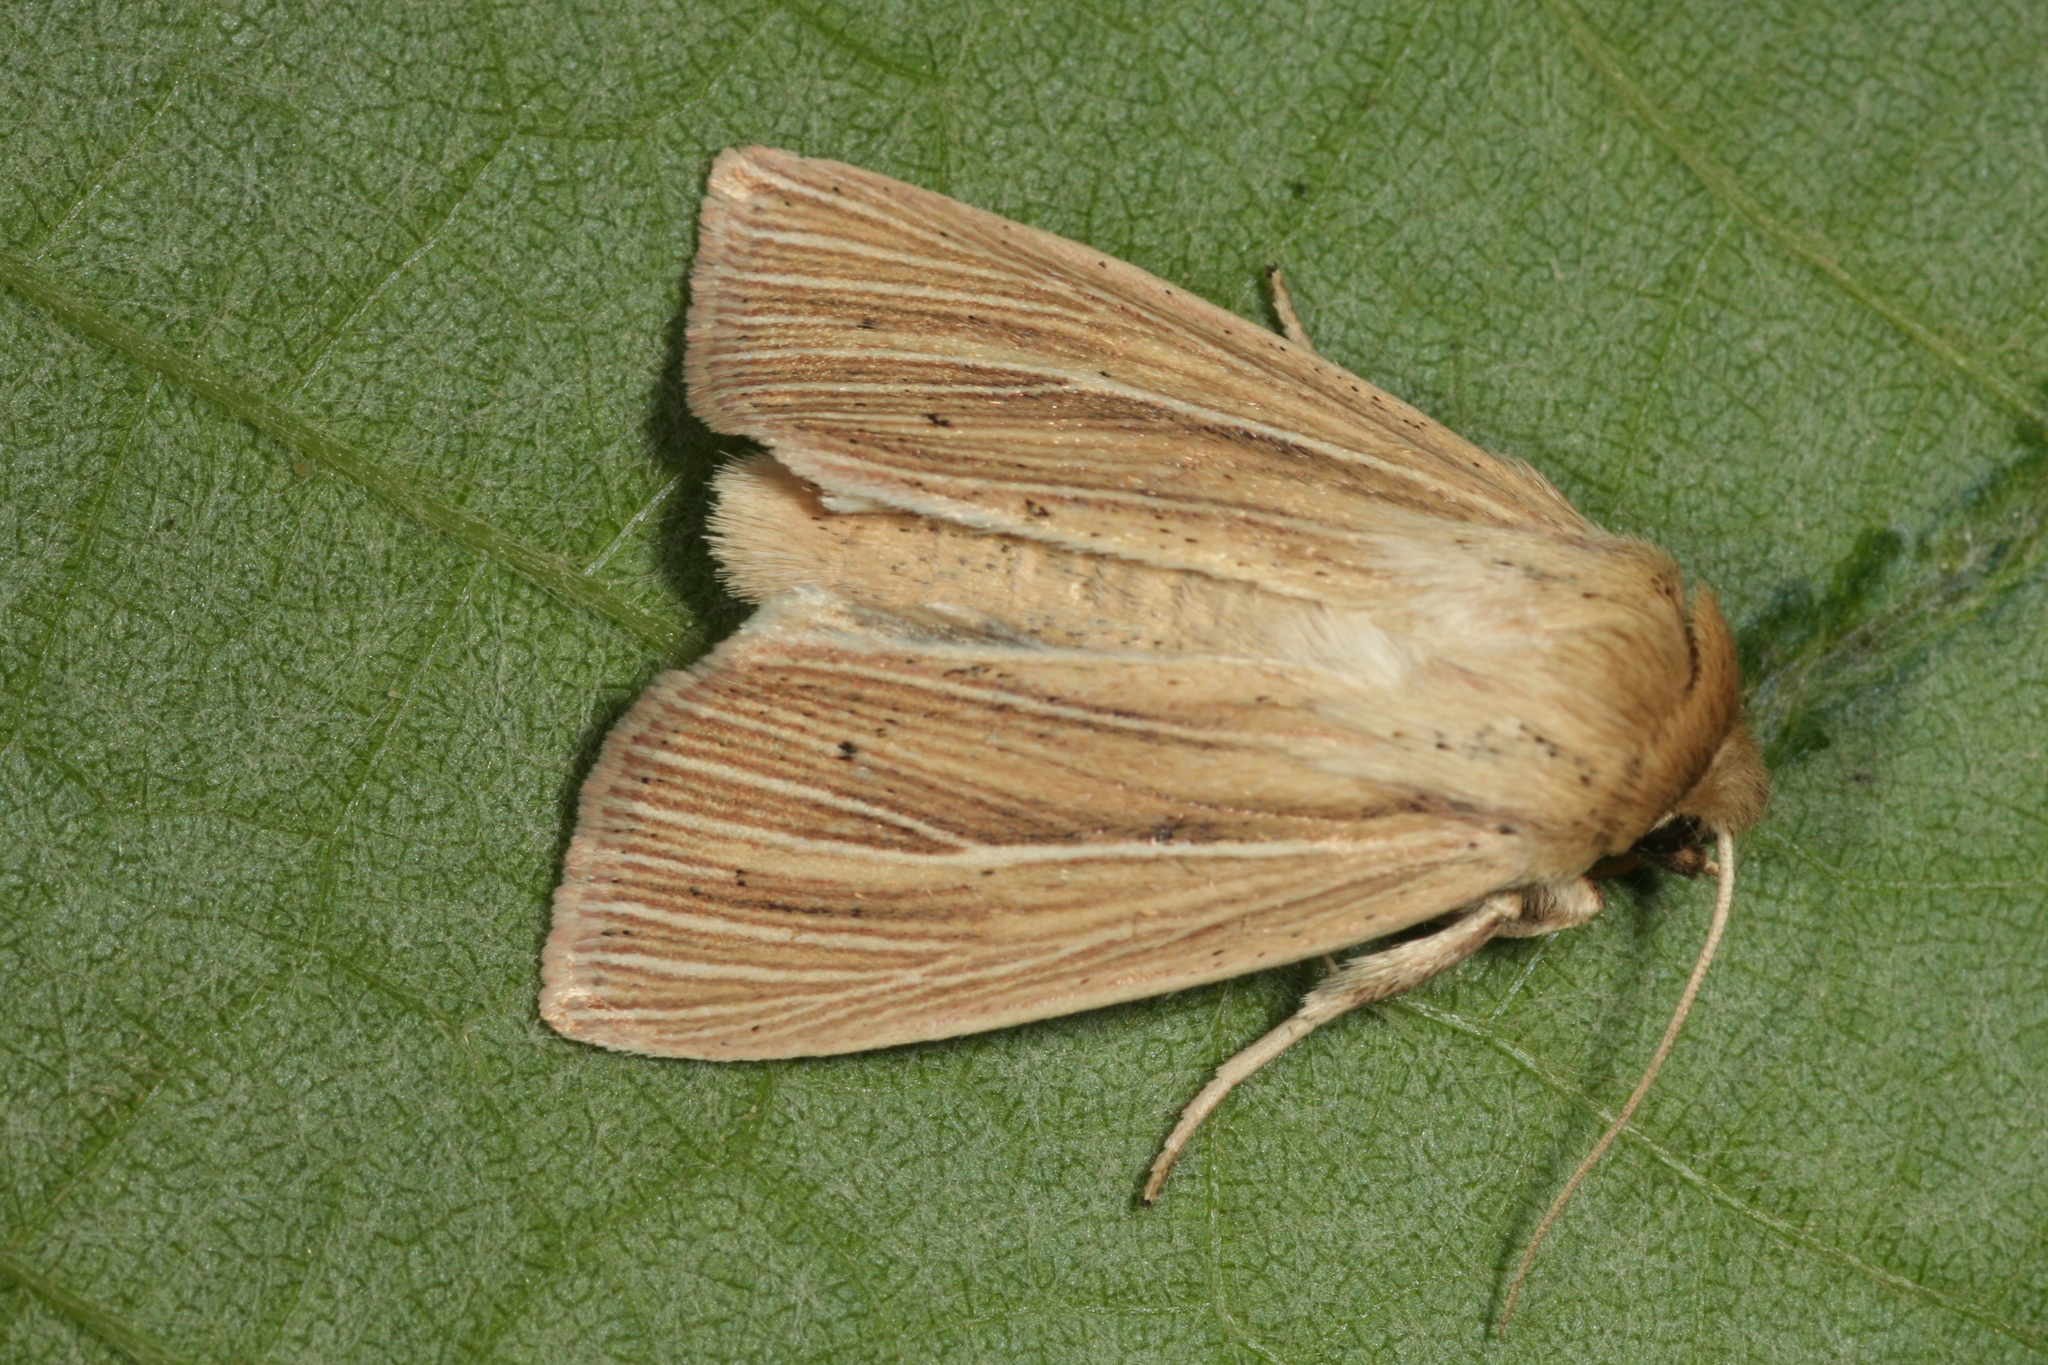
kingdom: Animalia
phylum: Arthropoda
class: Insecta
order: Lepidoptera
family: Noctuidae
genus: Mythimna
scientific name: Mythimna impura
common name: Smoky wainscot
